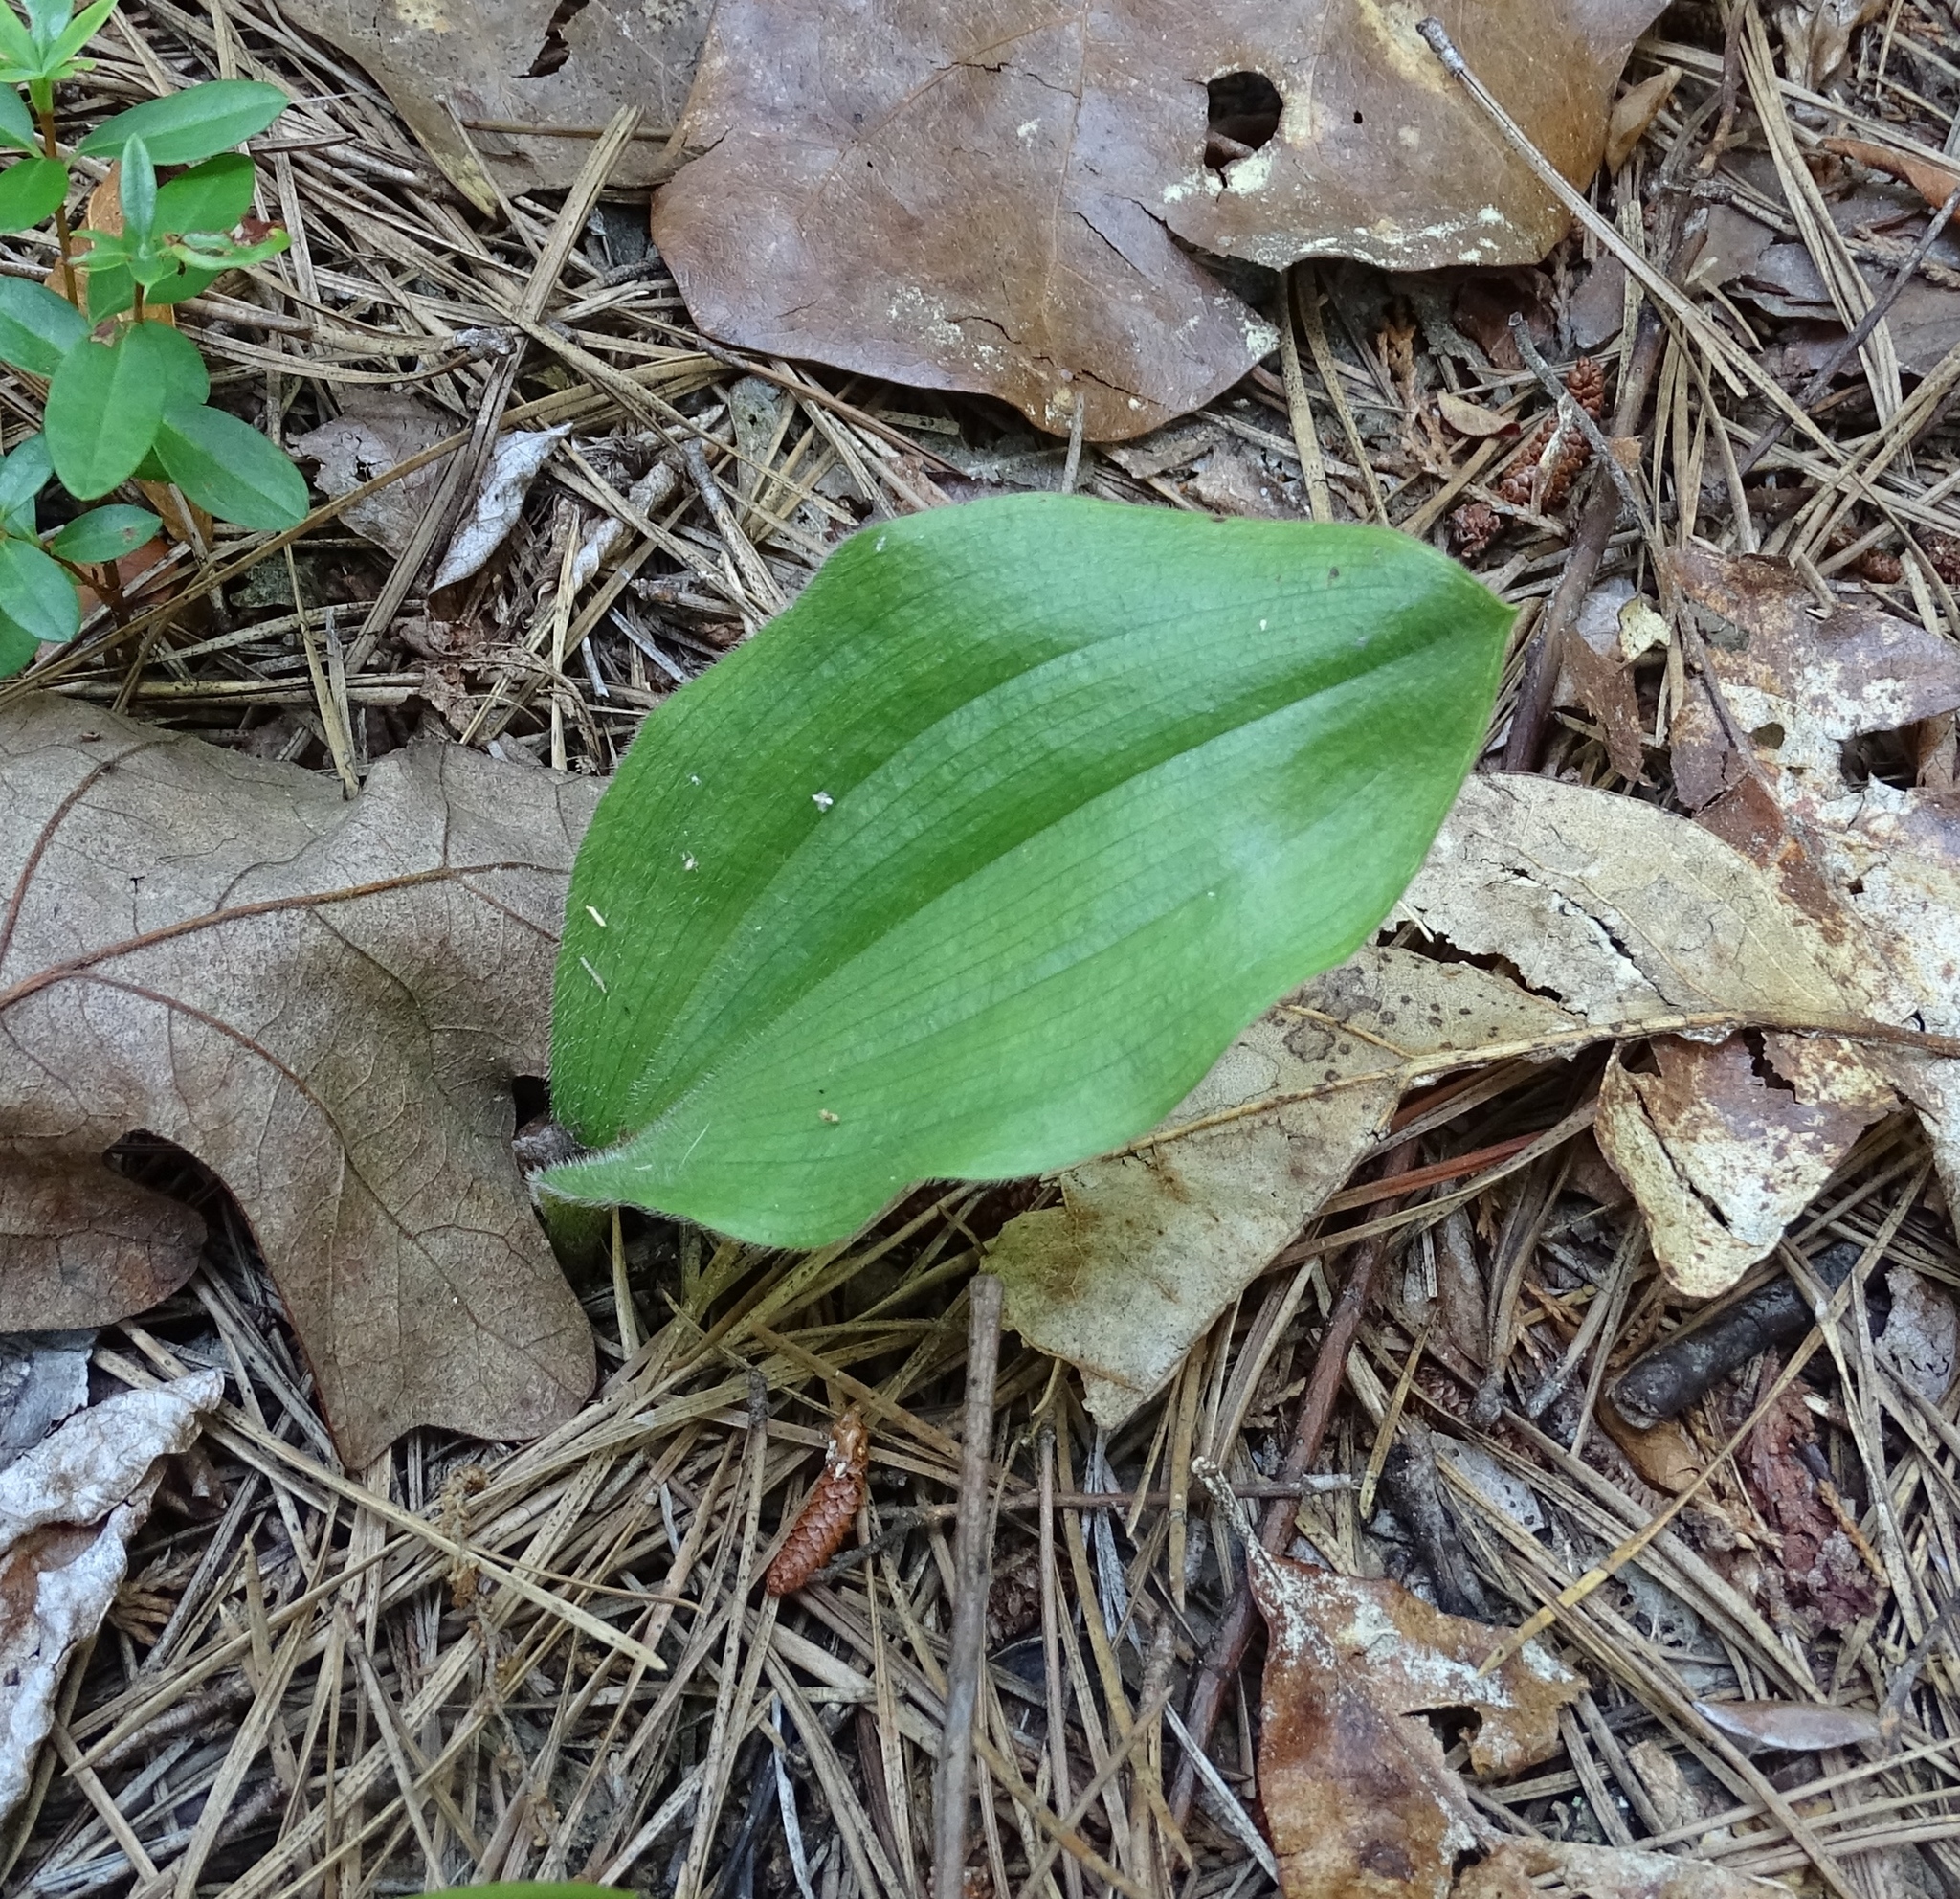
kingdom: Plantae
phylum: Tracheophyta
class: Liliopsida
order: Asparagales
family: Orchidaceae
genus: Cypripedium
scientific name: Cypripedium acaule
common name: Pink lady's-slipper
